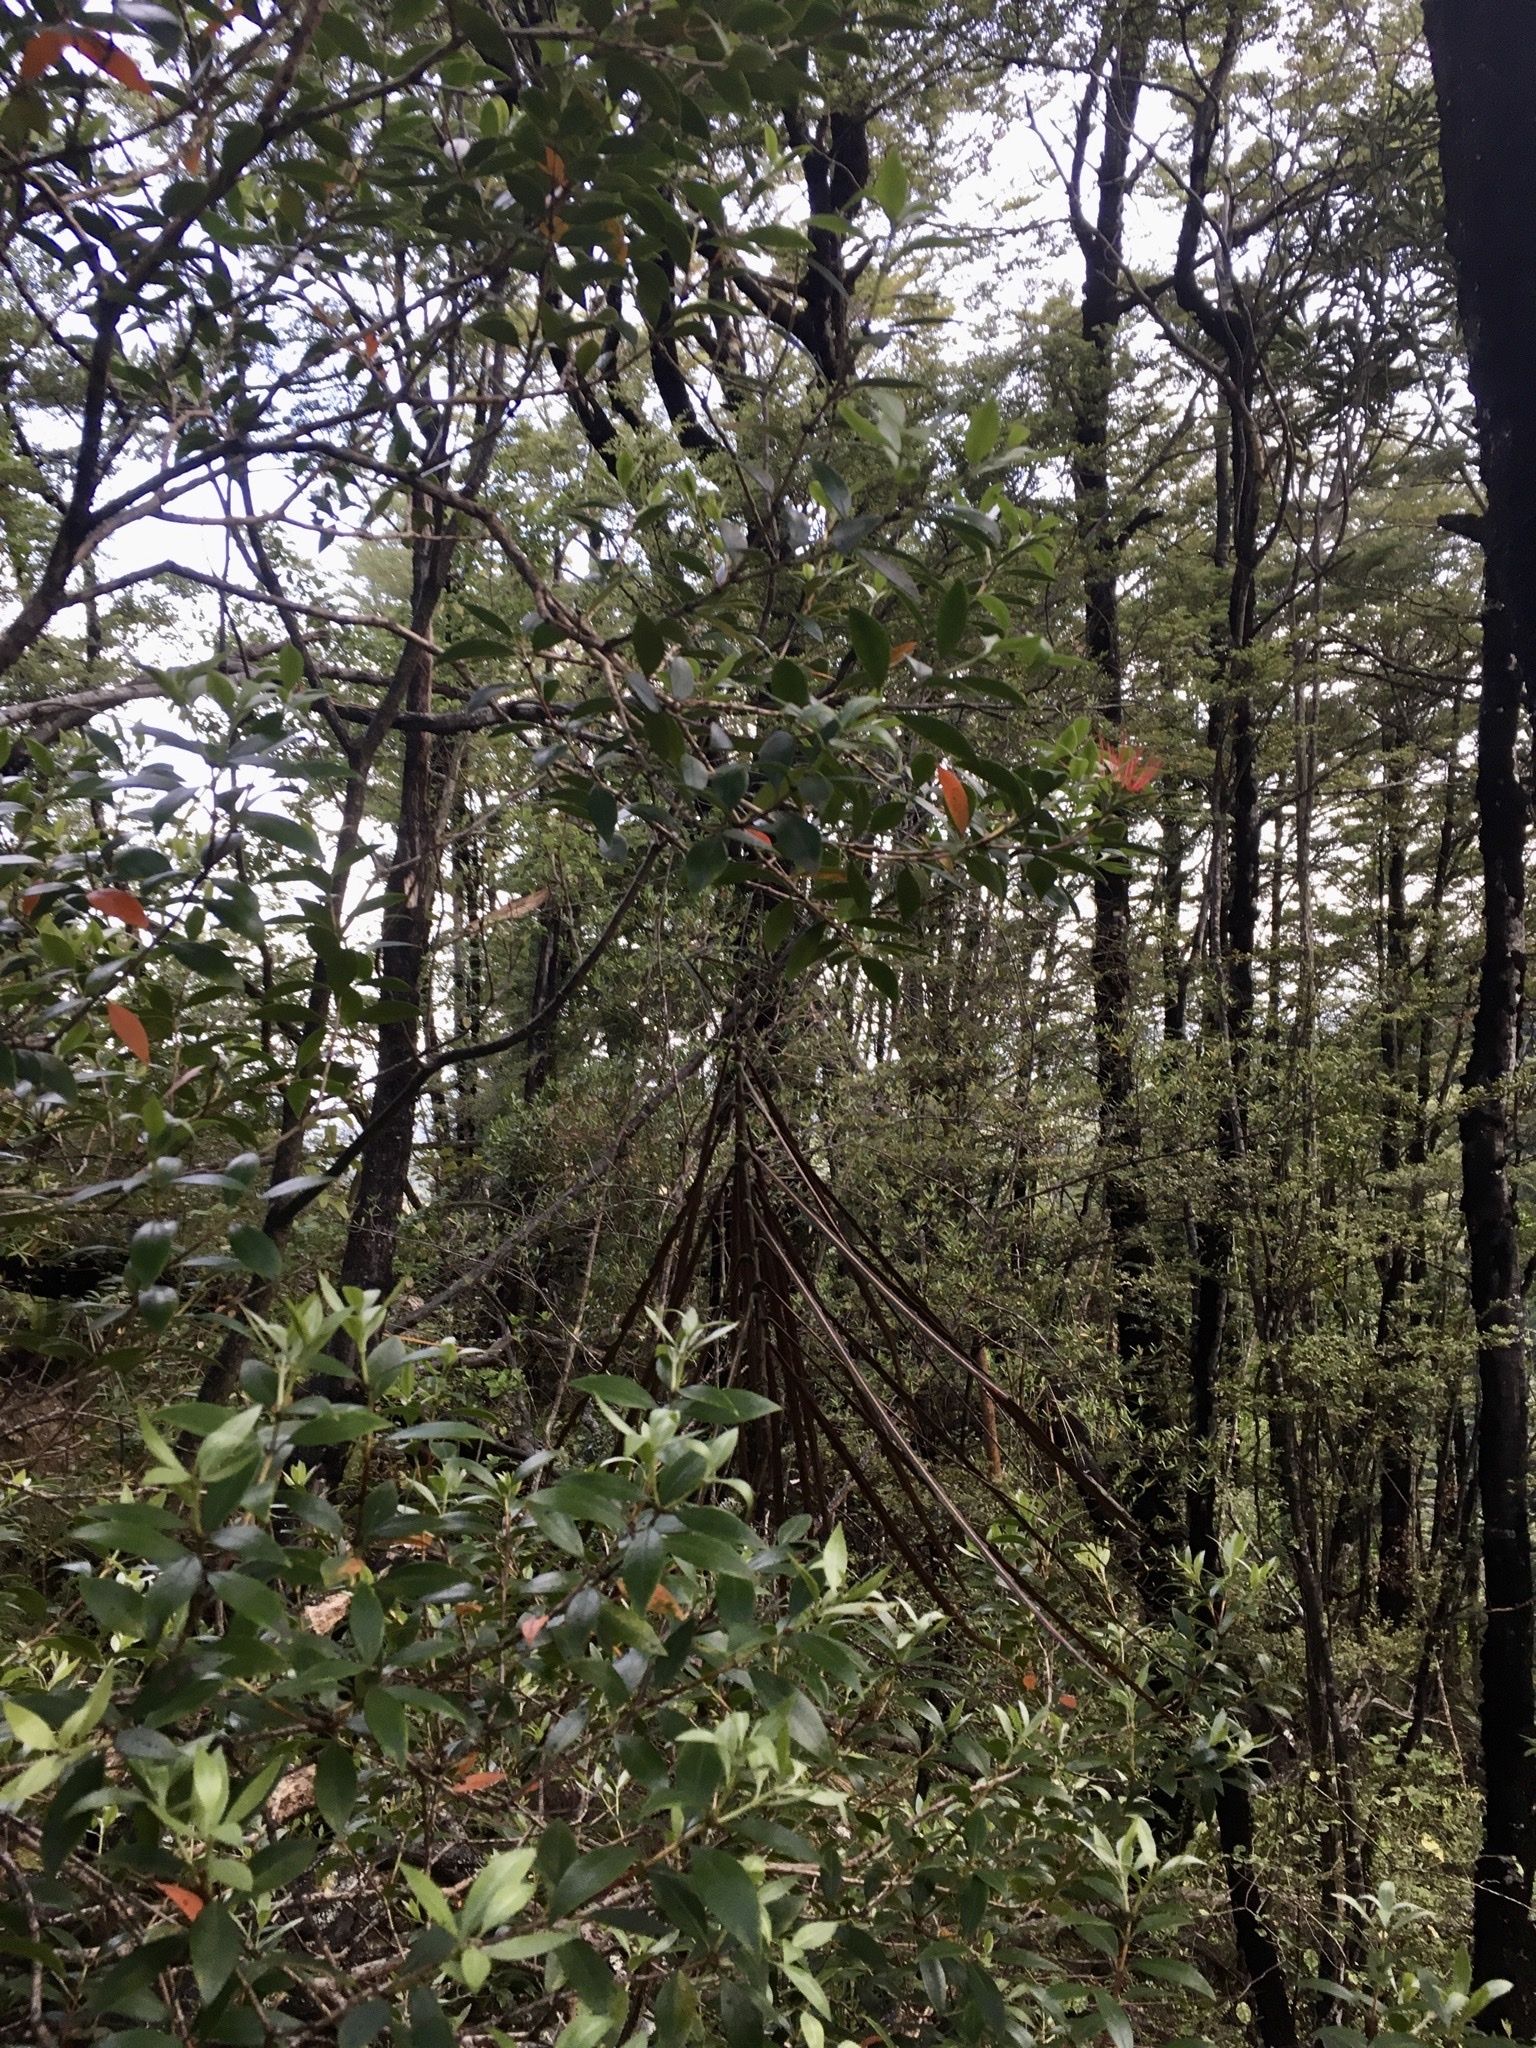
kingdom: Plantae
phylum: Tracheophyta
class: Magnoliopsida
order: Myrtales
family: Myrtaceae
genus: Metrosideros
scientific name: Metrosideros umbellata
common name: Southern rata
